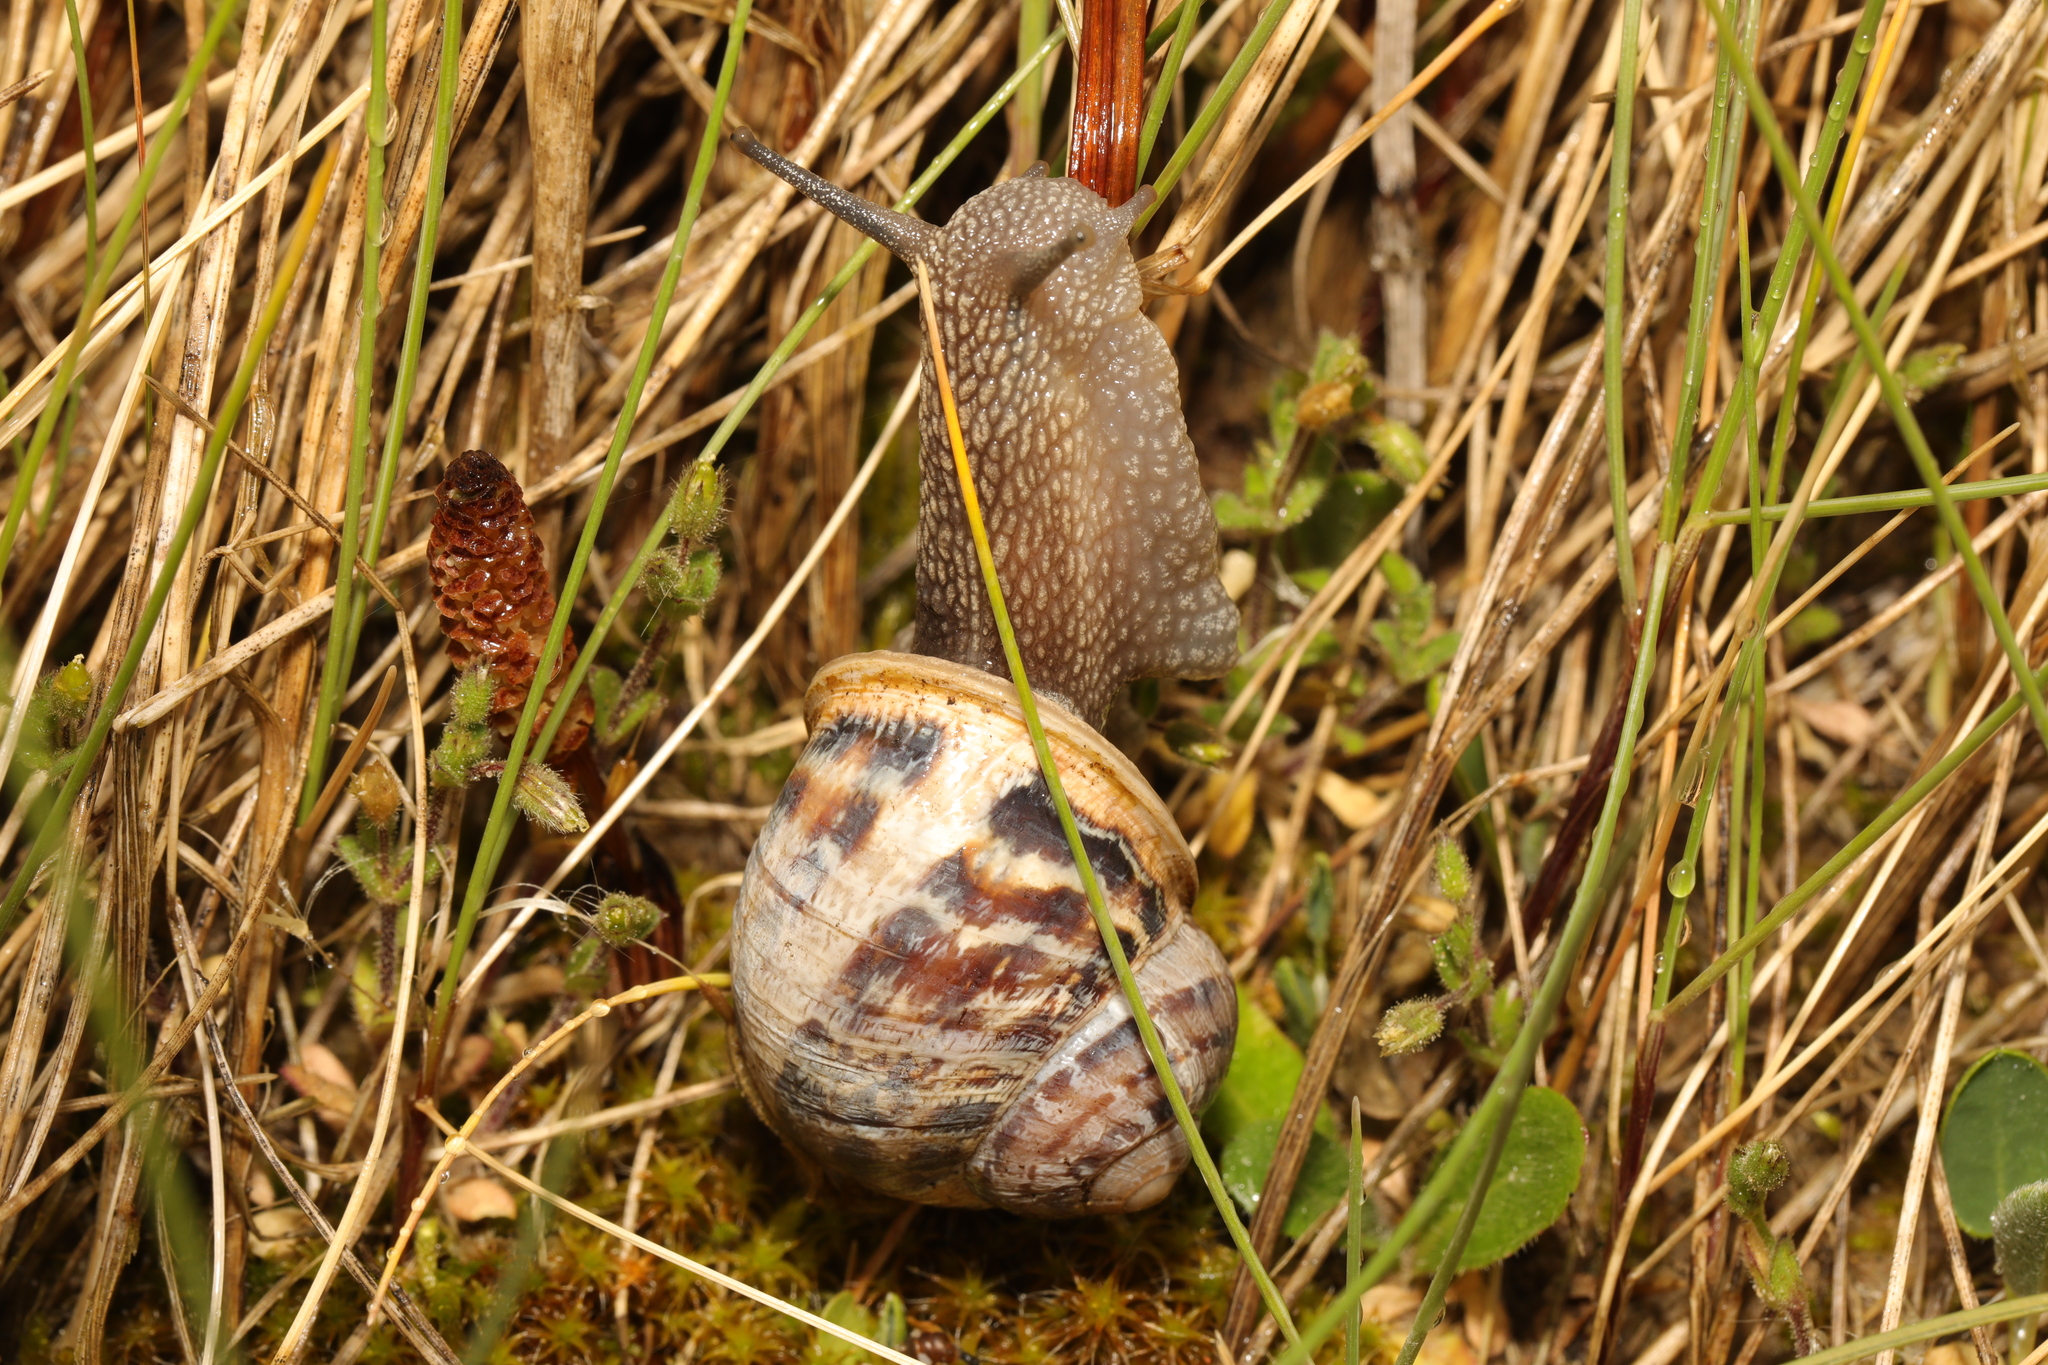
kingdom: Animalia
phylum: Mollusca
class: Gastropoda
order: Stylommatophora
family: Helicidae
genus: Cornu
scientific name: Cornu aspersum
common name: Brown garden snail
